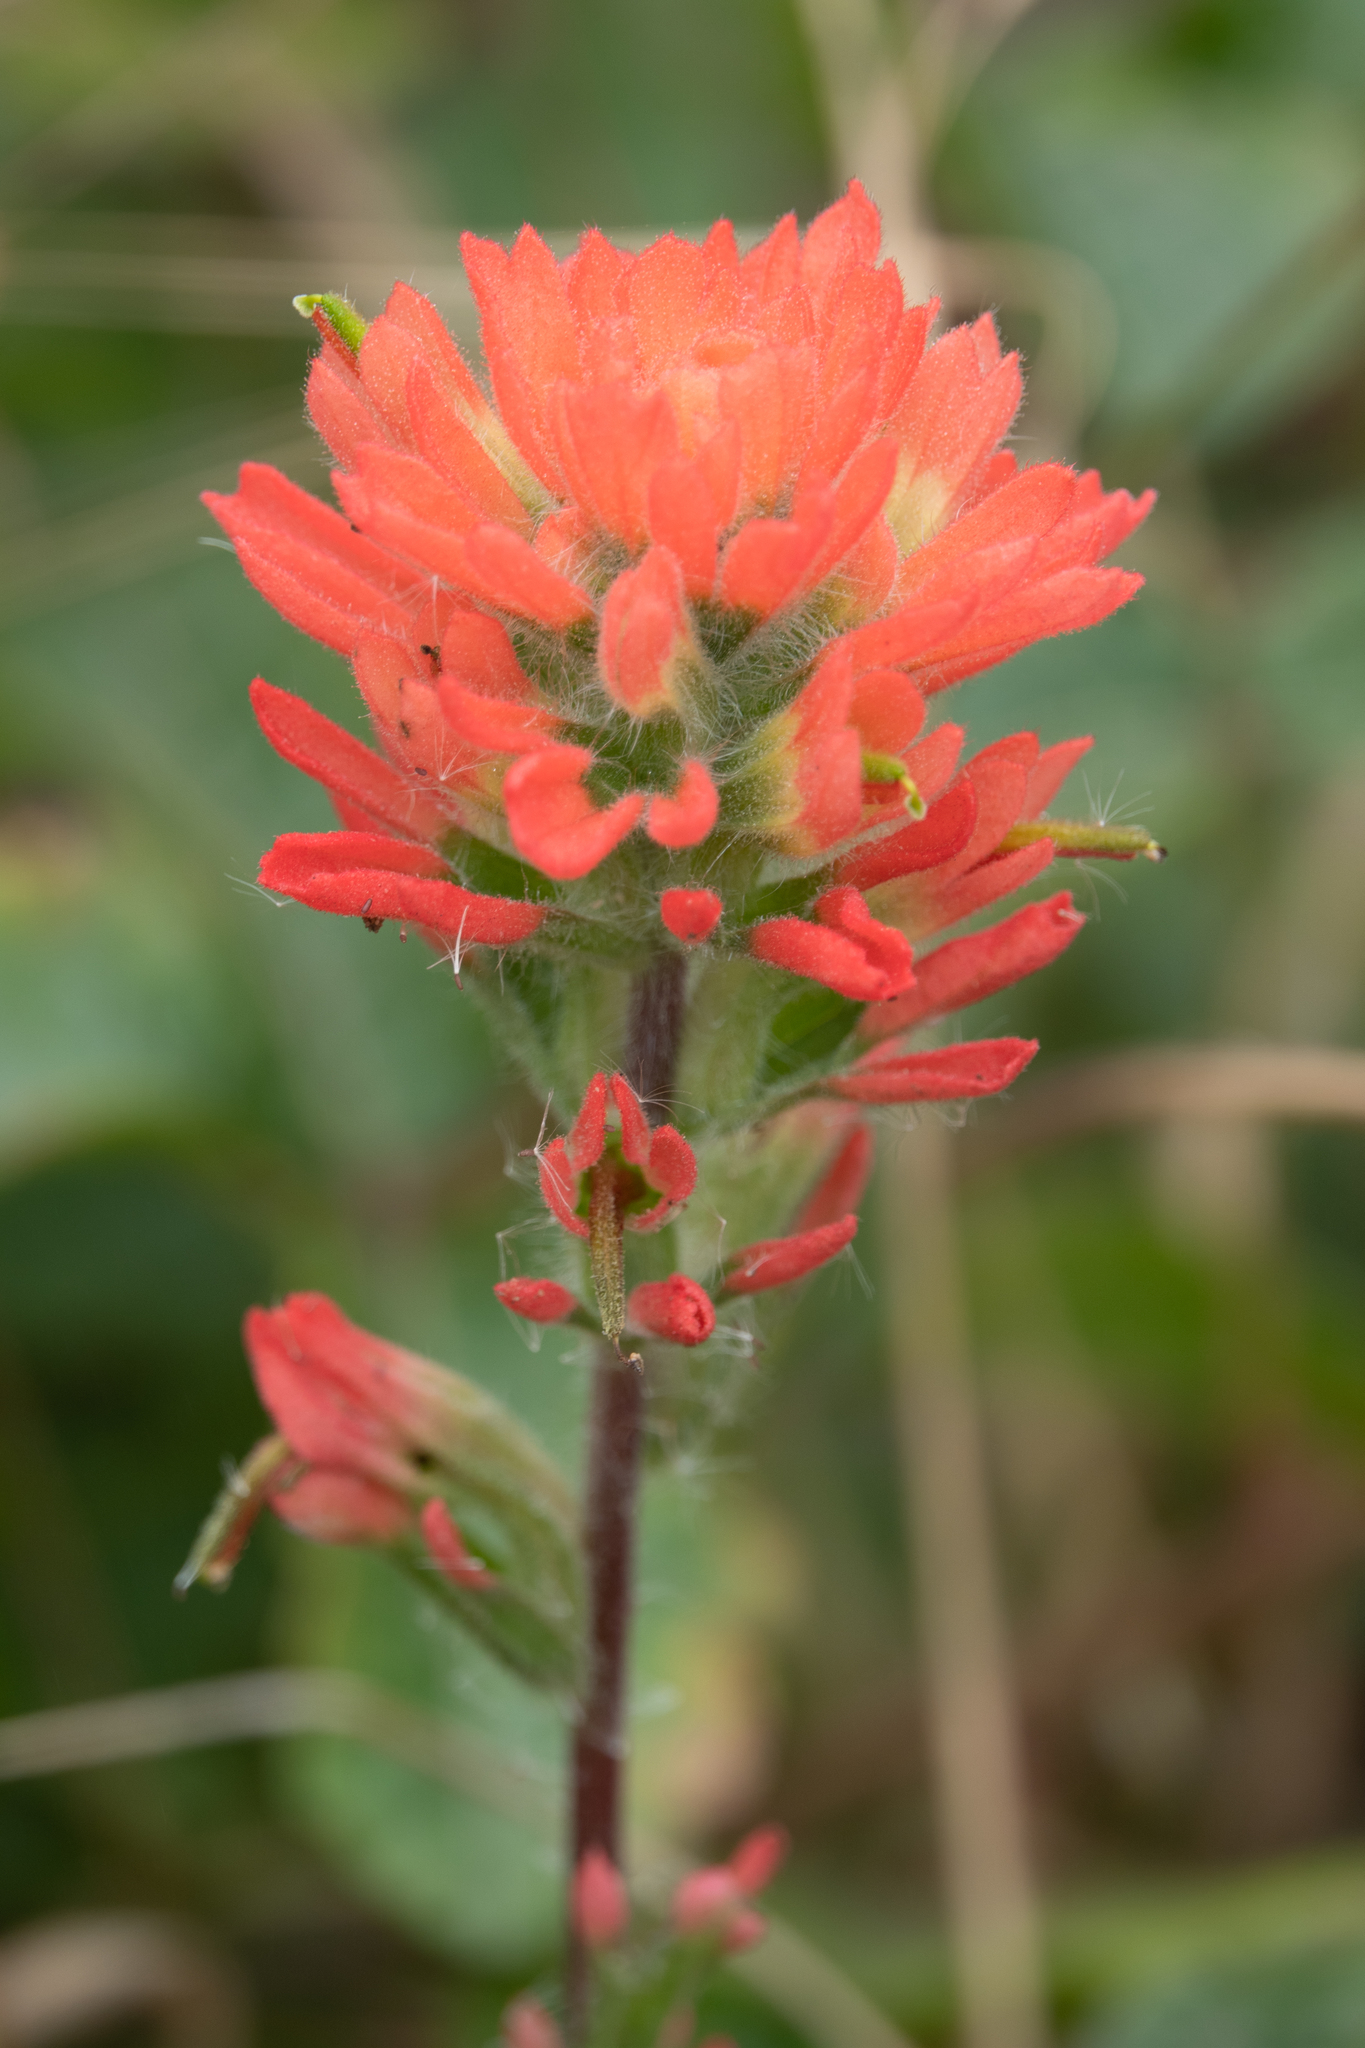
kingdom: Plantae
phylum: Tracheophyta
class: Magnoliopsida
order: Lamiales
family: Orobanchaceae
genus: Castilleja
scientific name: Castilleja affinis
